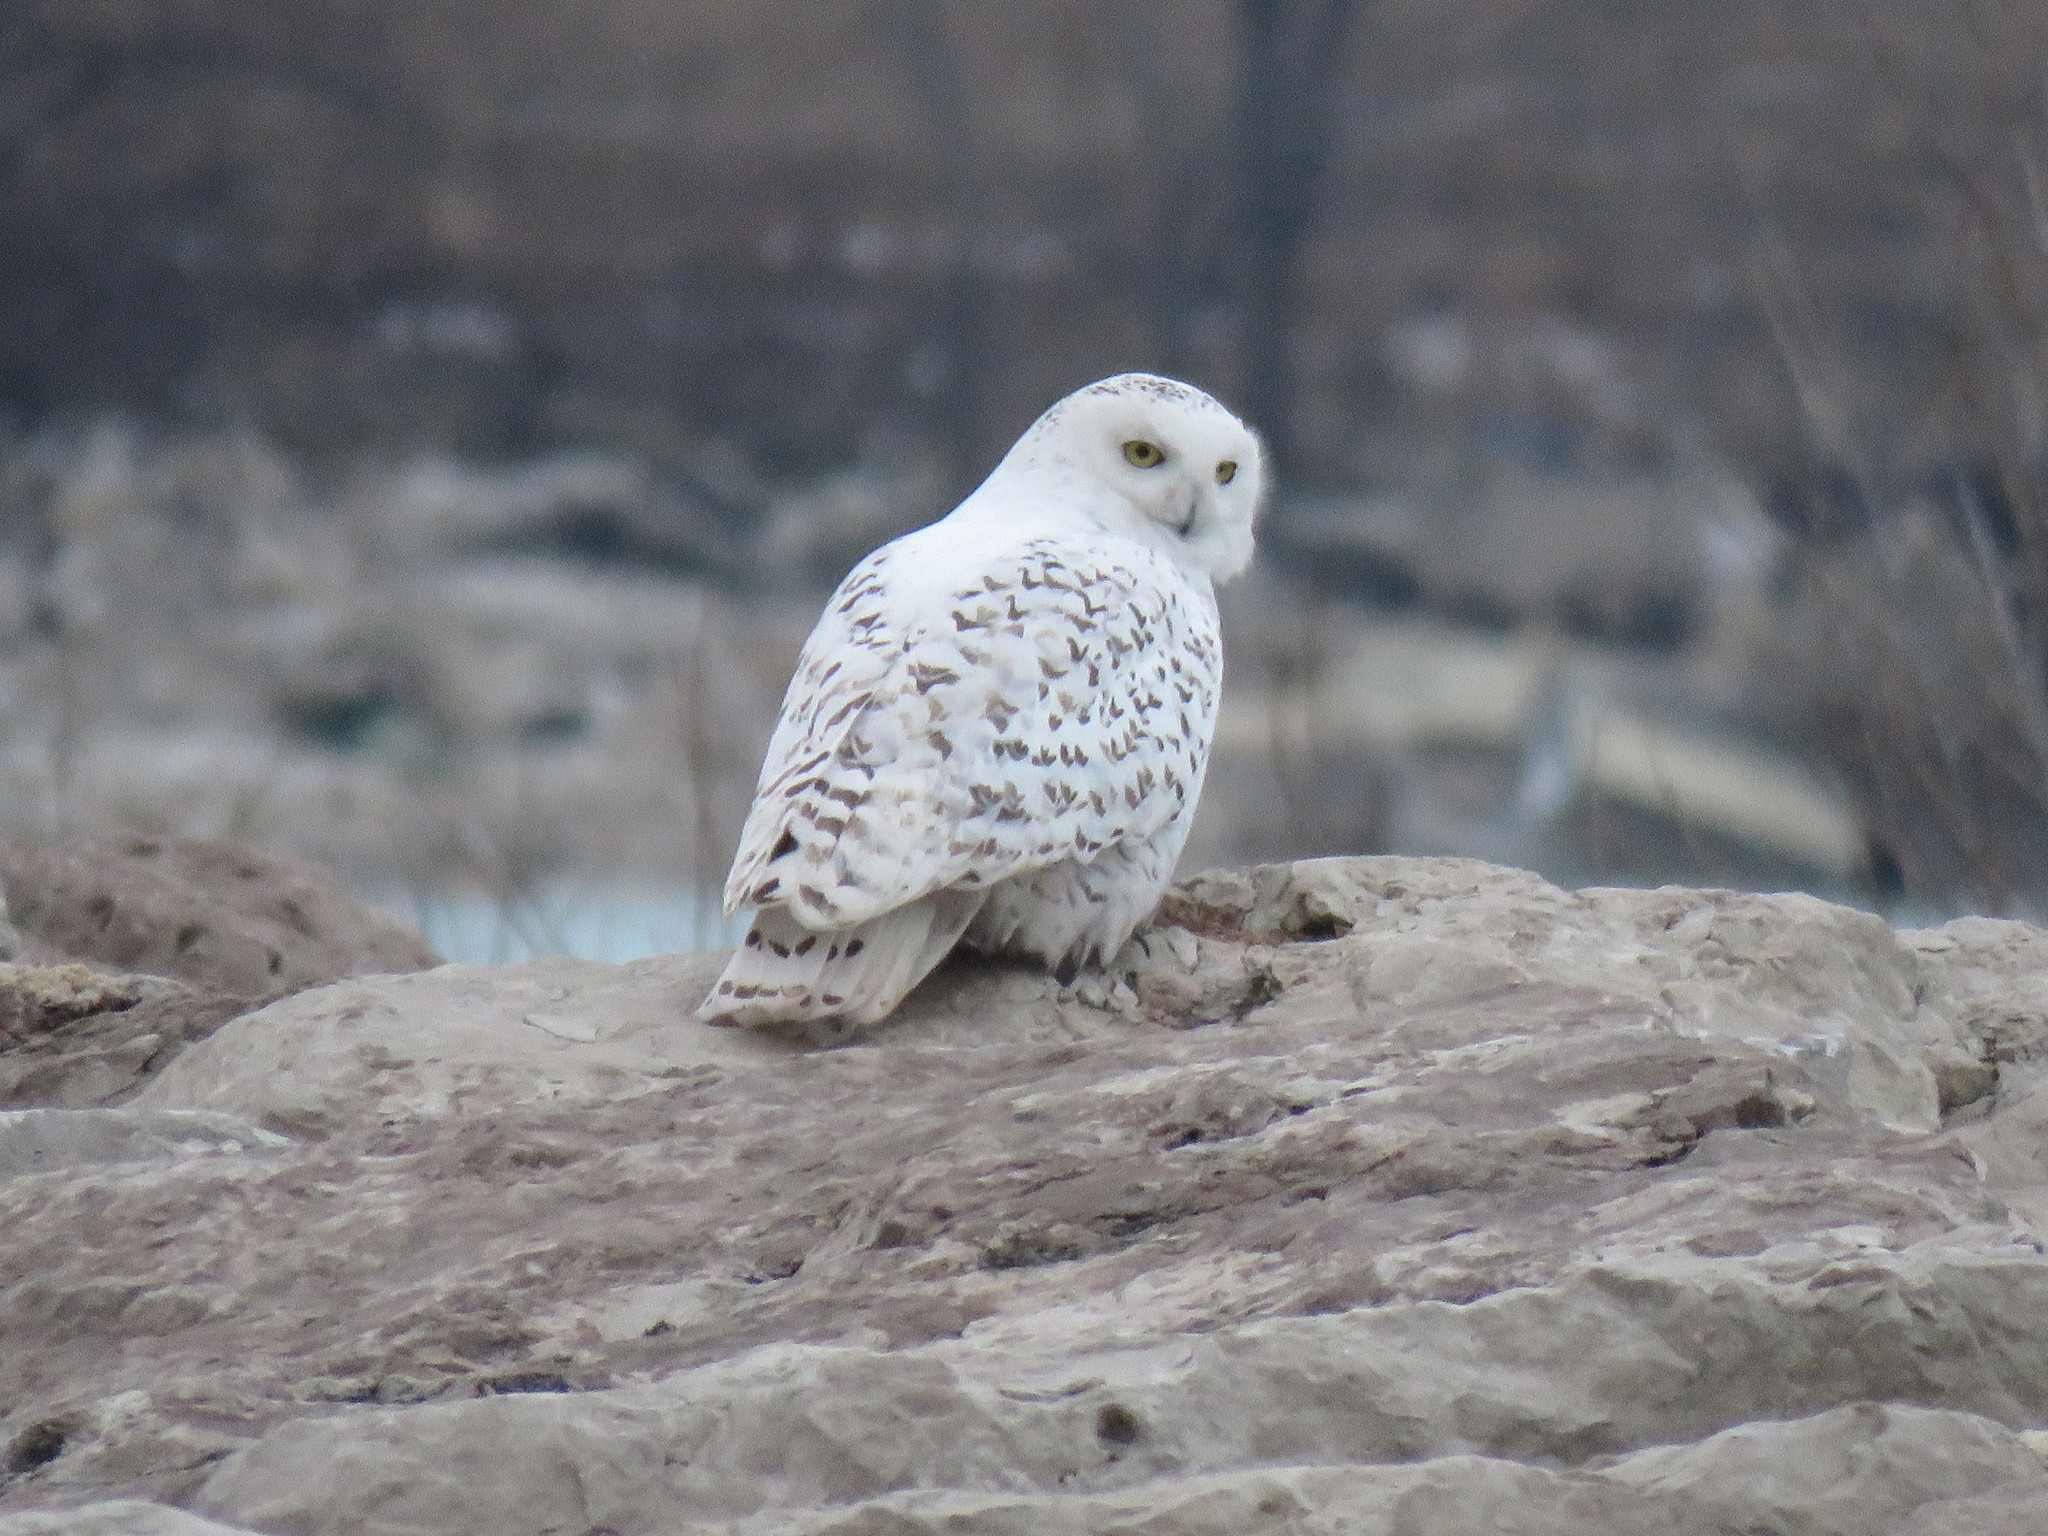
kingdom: Animalia
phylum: Chordata
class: Aves
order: Strigiformes
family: Strigidae
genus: Bubo
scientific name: Bubo scandiacus
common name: Snowy owl
